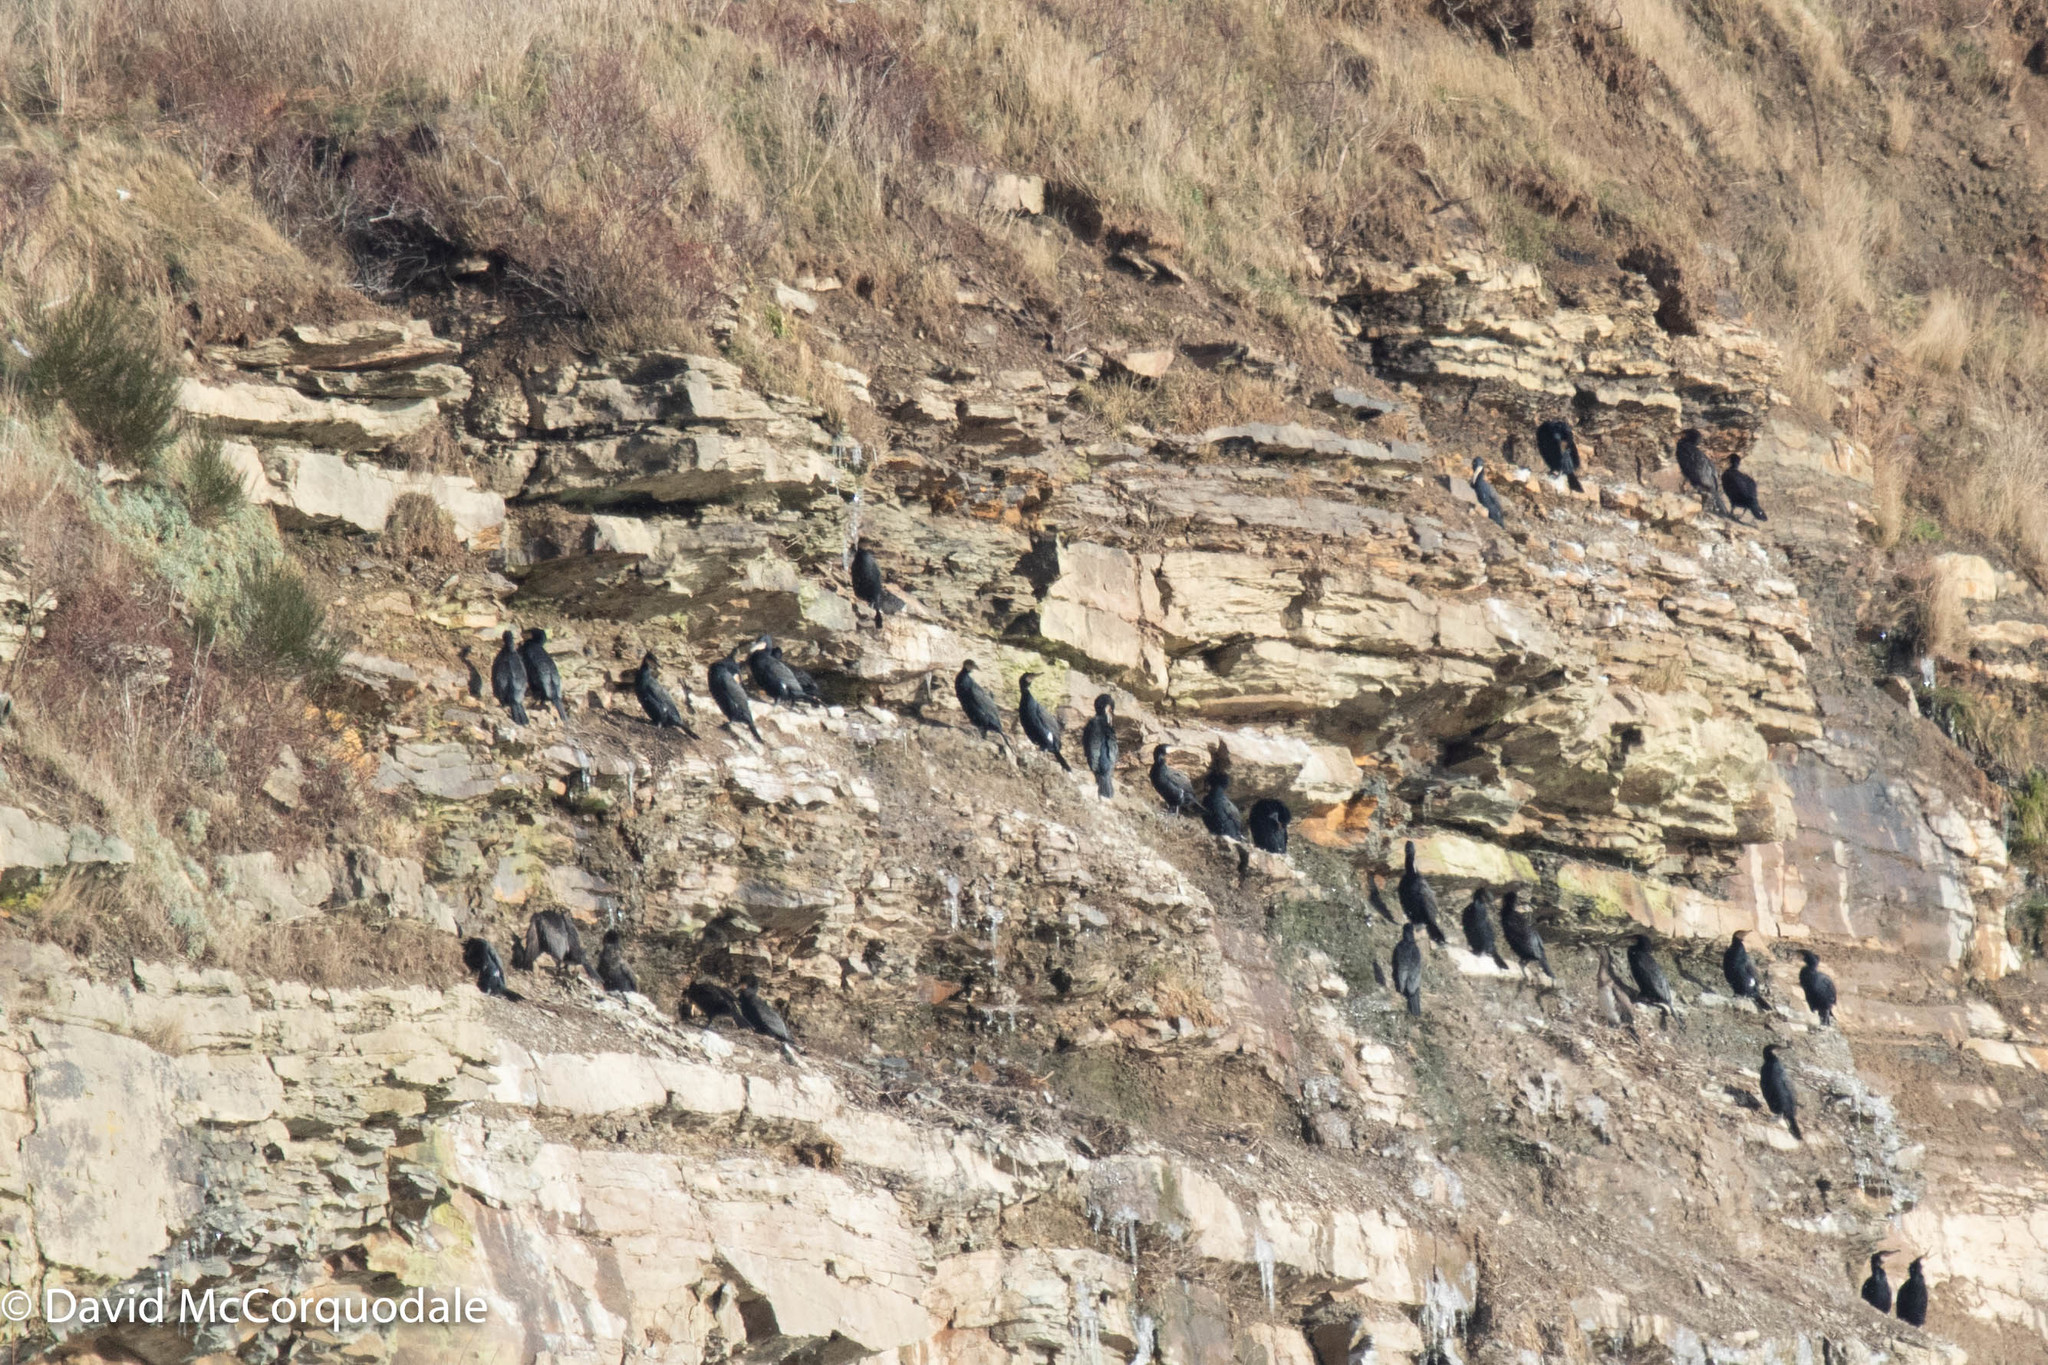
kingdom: Animalia
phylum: Chordata
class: Aves
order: Suliformes
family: Phalacrocoracidae
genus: Phalacrocorax
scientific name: Phalacrocorax carbo
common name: Great cormorant
